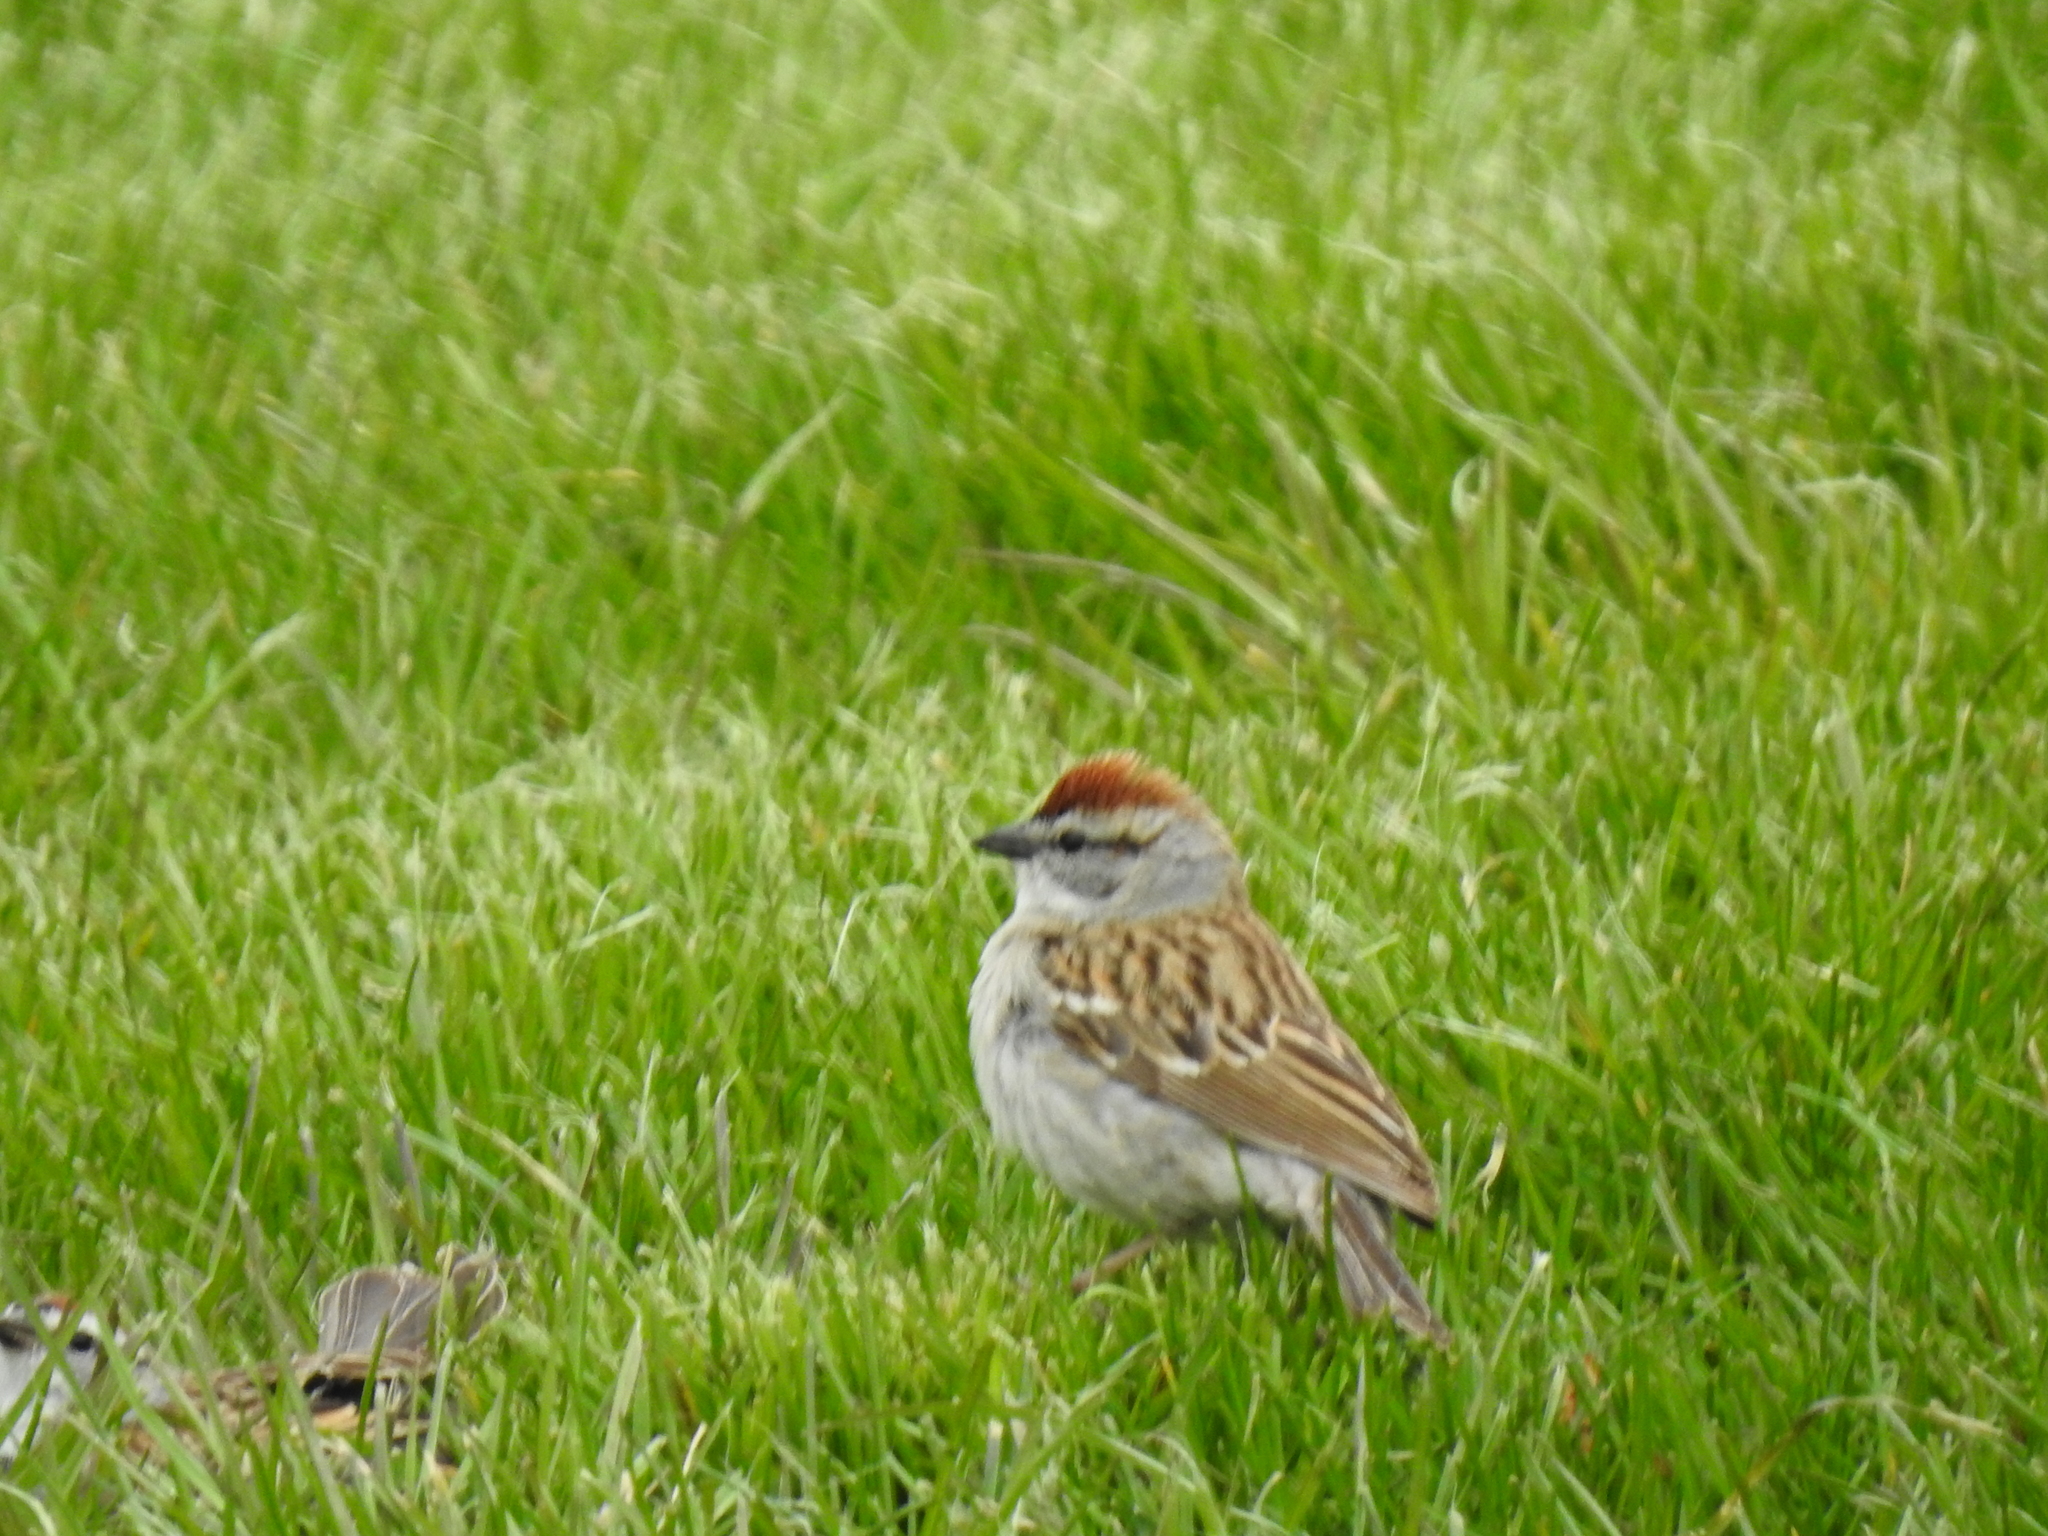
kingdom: Animalia
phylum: Chordata
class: Aves
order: Passeriformes
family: Passerellidae
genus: Spizella
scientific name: Spizella passerina
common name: Chipping sparrow
